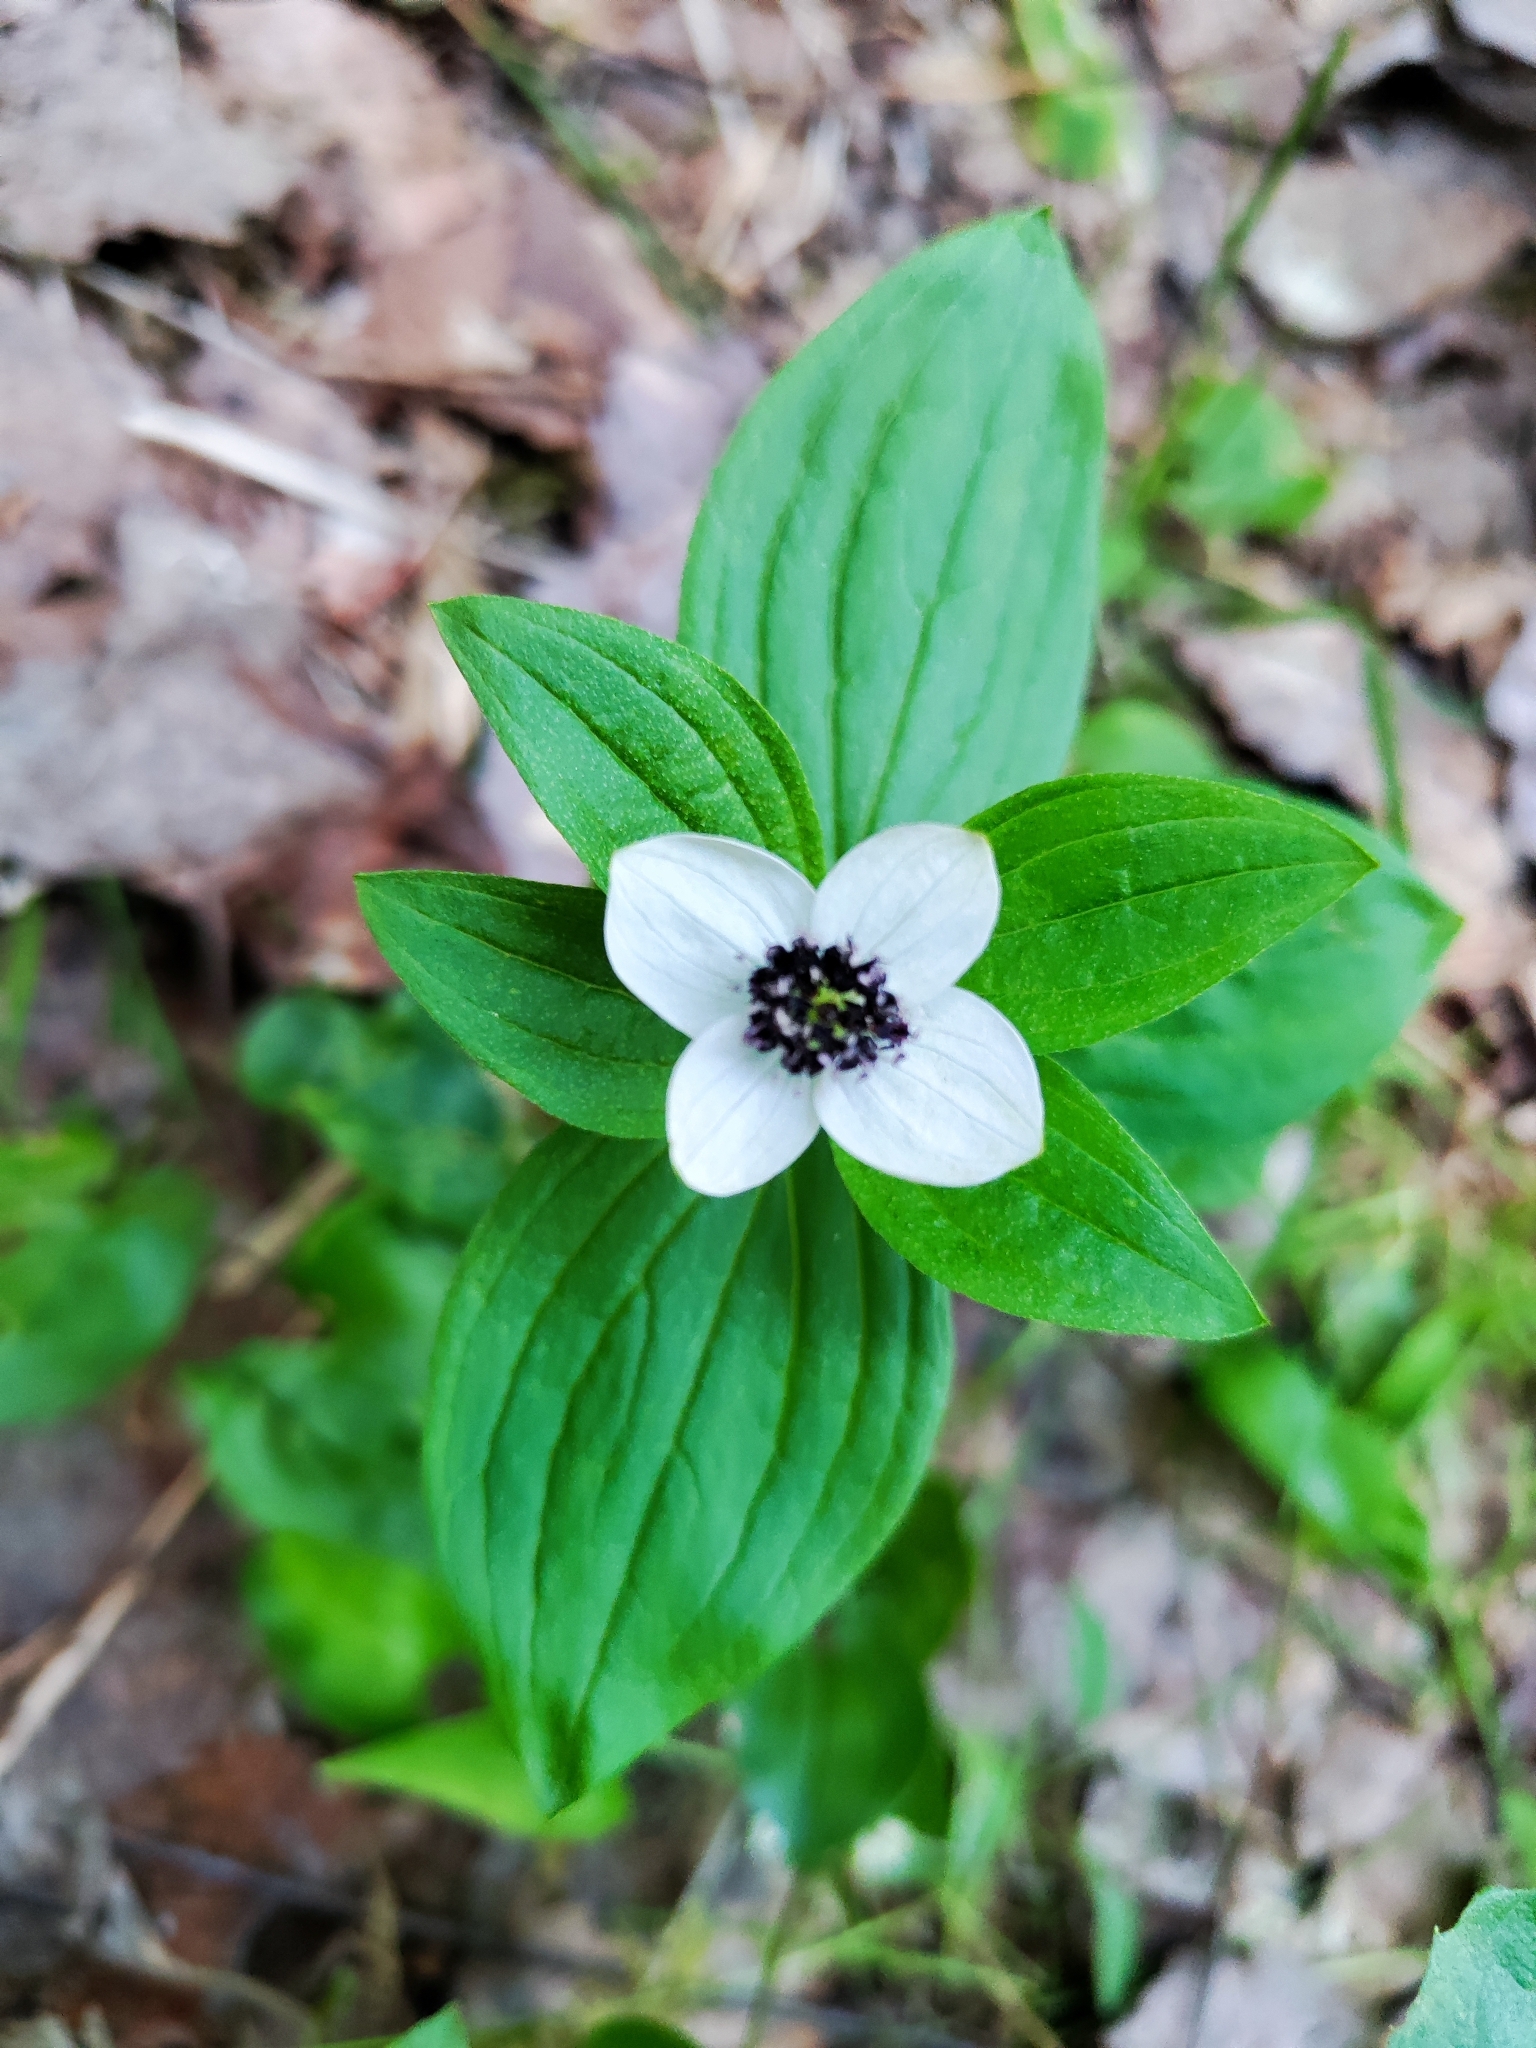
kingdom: Plantae
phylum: Tracheophyta
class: Magnoliopsida
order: Cornales
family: Cornaceae
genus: Cornus
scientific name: Cornus suecica
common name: Dwarf cornel
